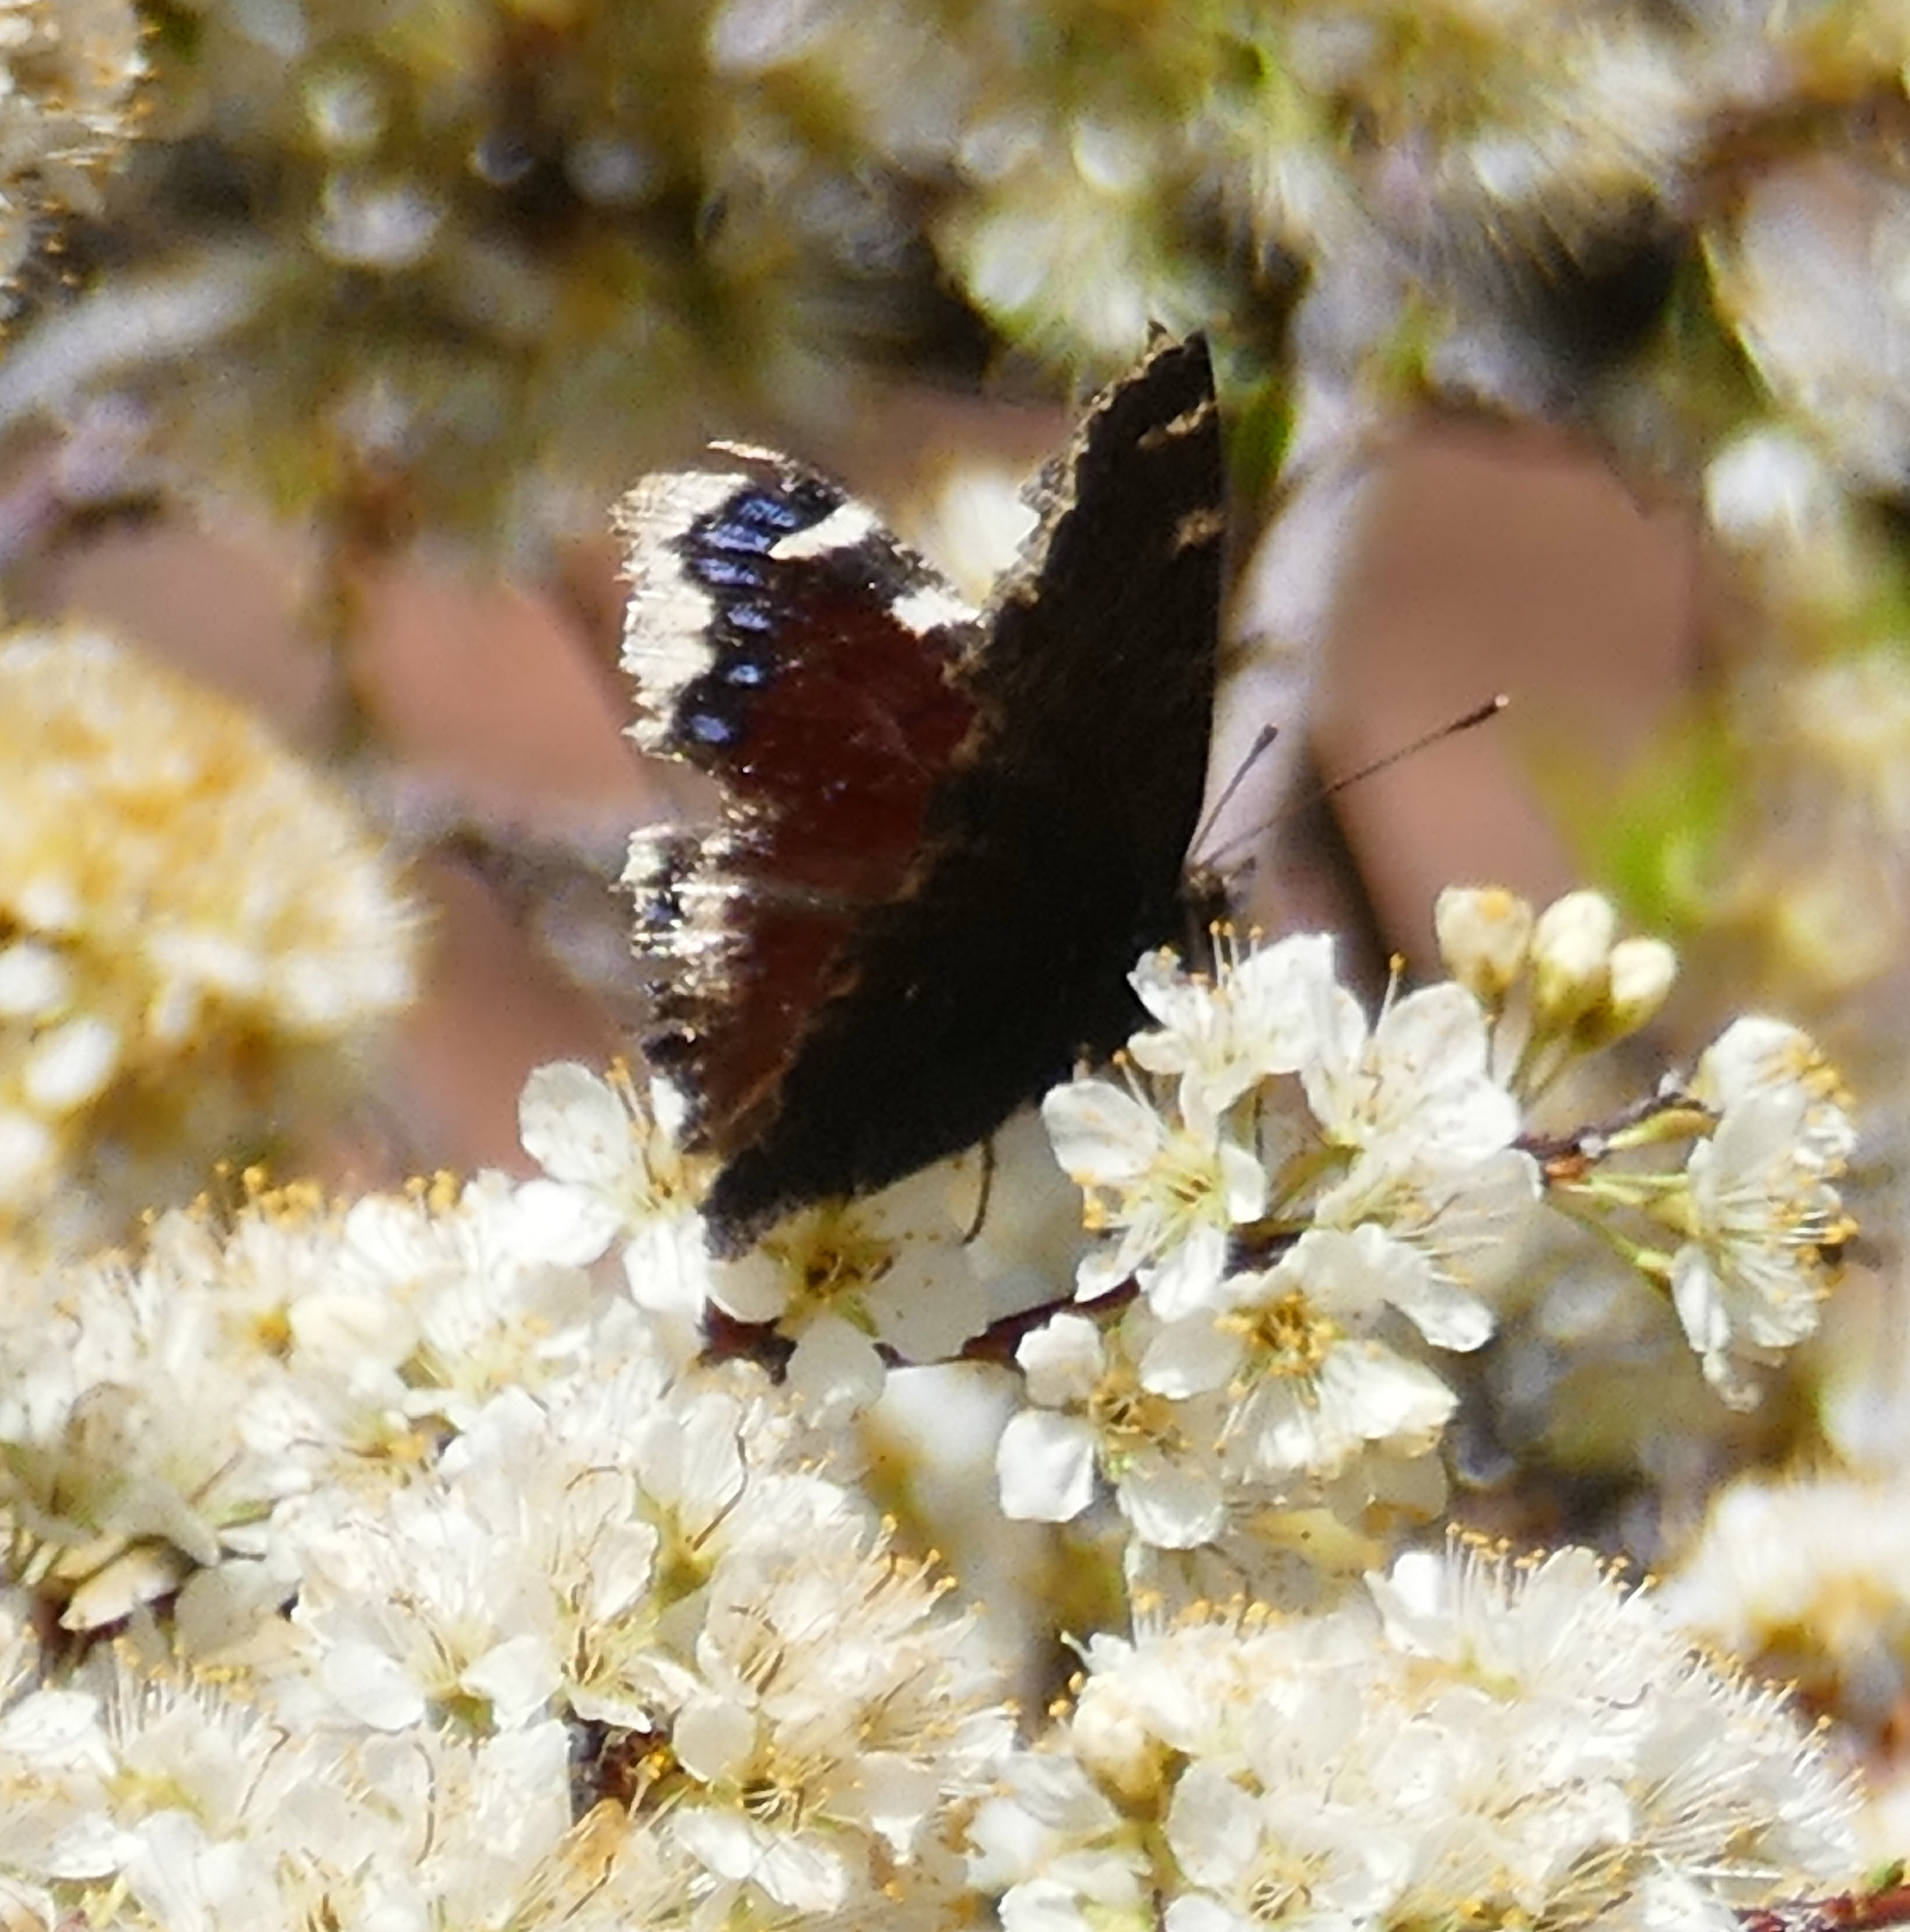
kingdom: Animalia
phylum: Arthropoda
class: Insecta
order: Lepidoptera
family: Nymphalidae
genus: Nymphalis
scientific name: Nymphalis antiopa
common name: Camberwell beauty
